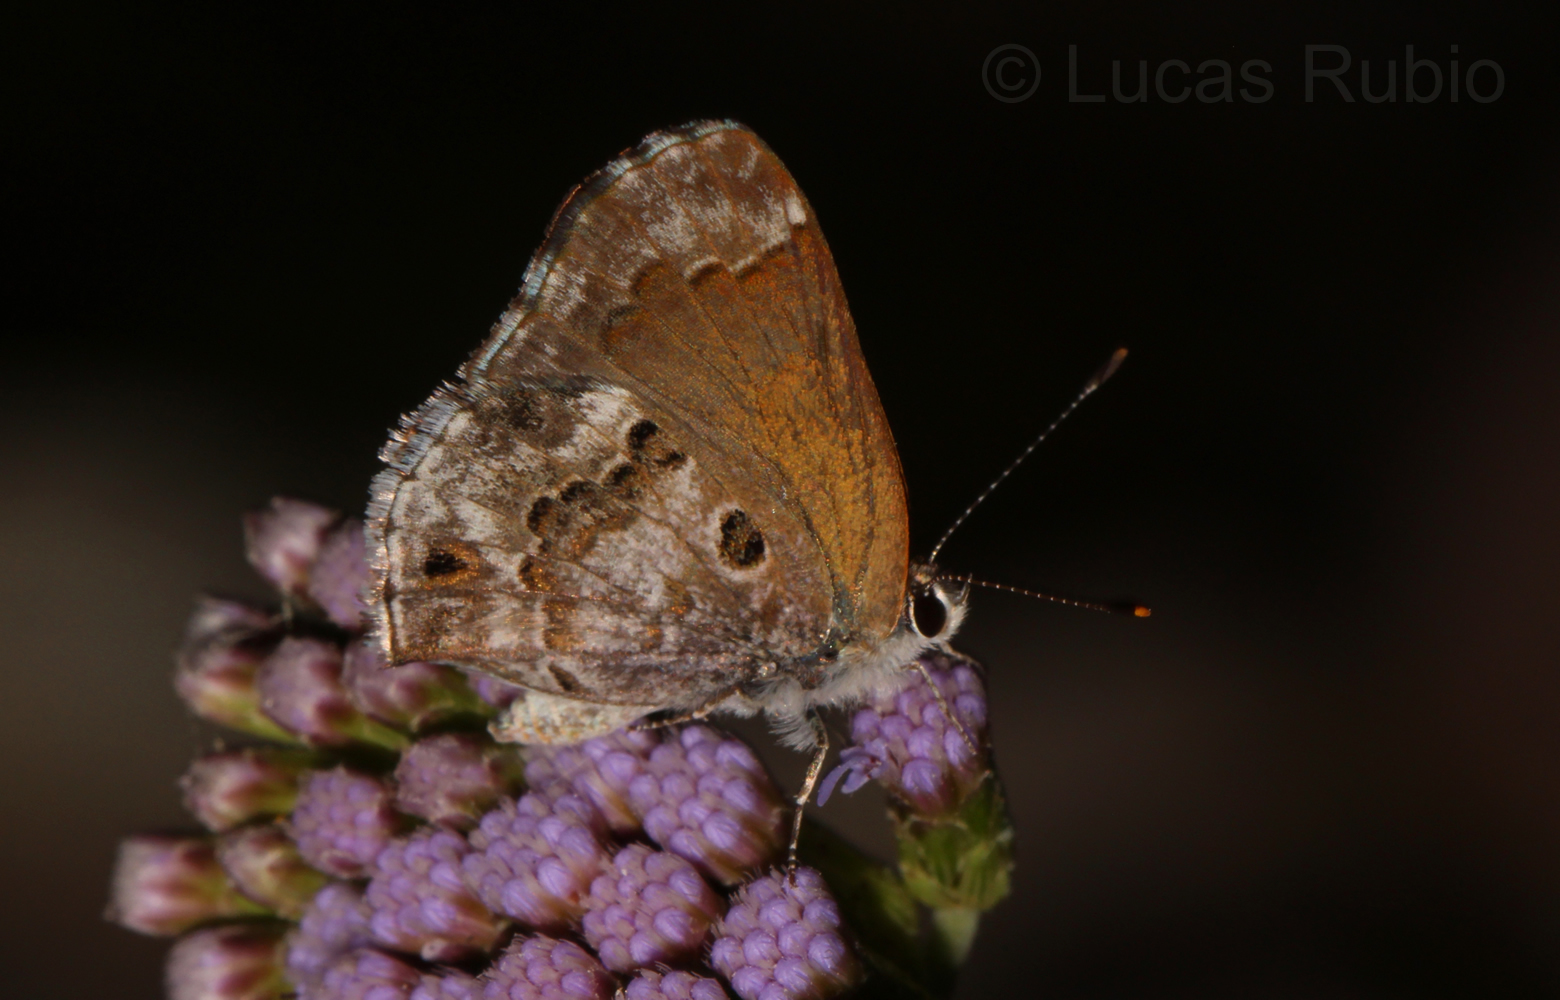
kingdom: Animalia
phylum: Arthropoda
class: Insecta
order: Lepidoptera
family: Lycaenidae
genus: Thecla
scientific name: Thecla cestri
